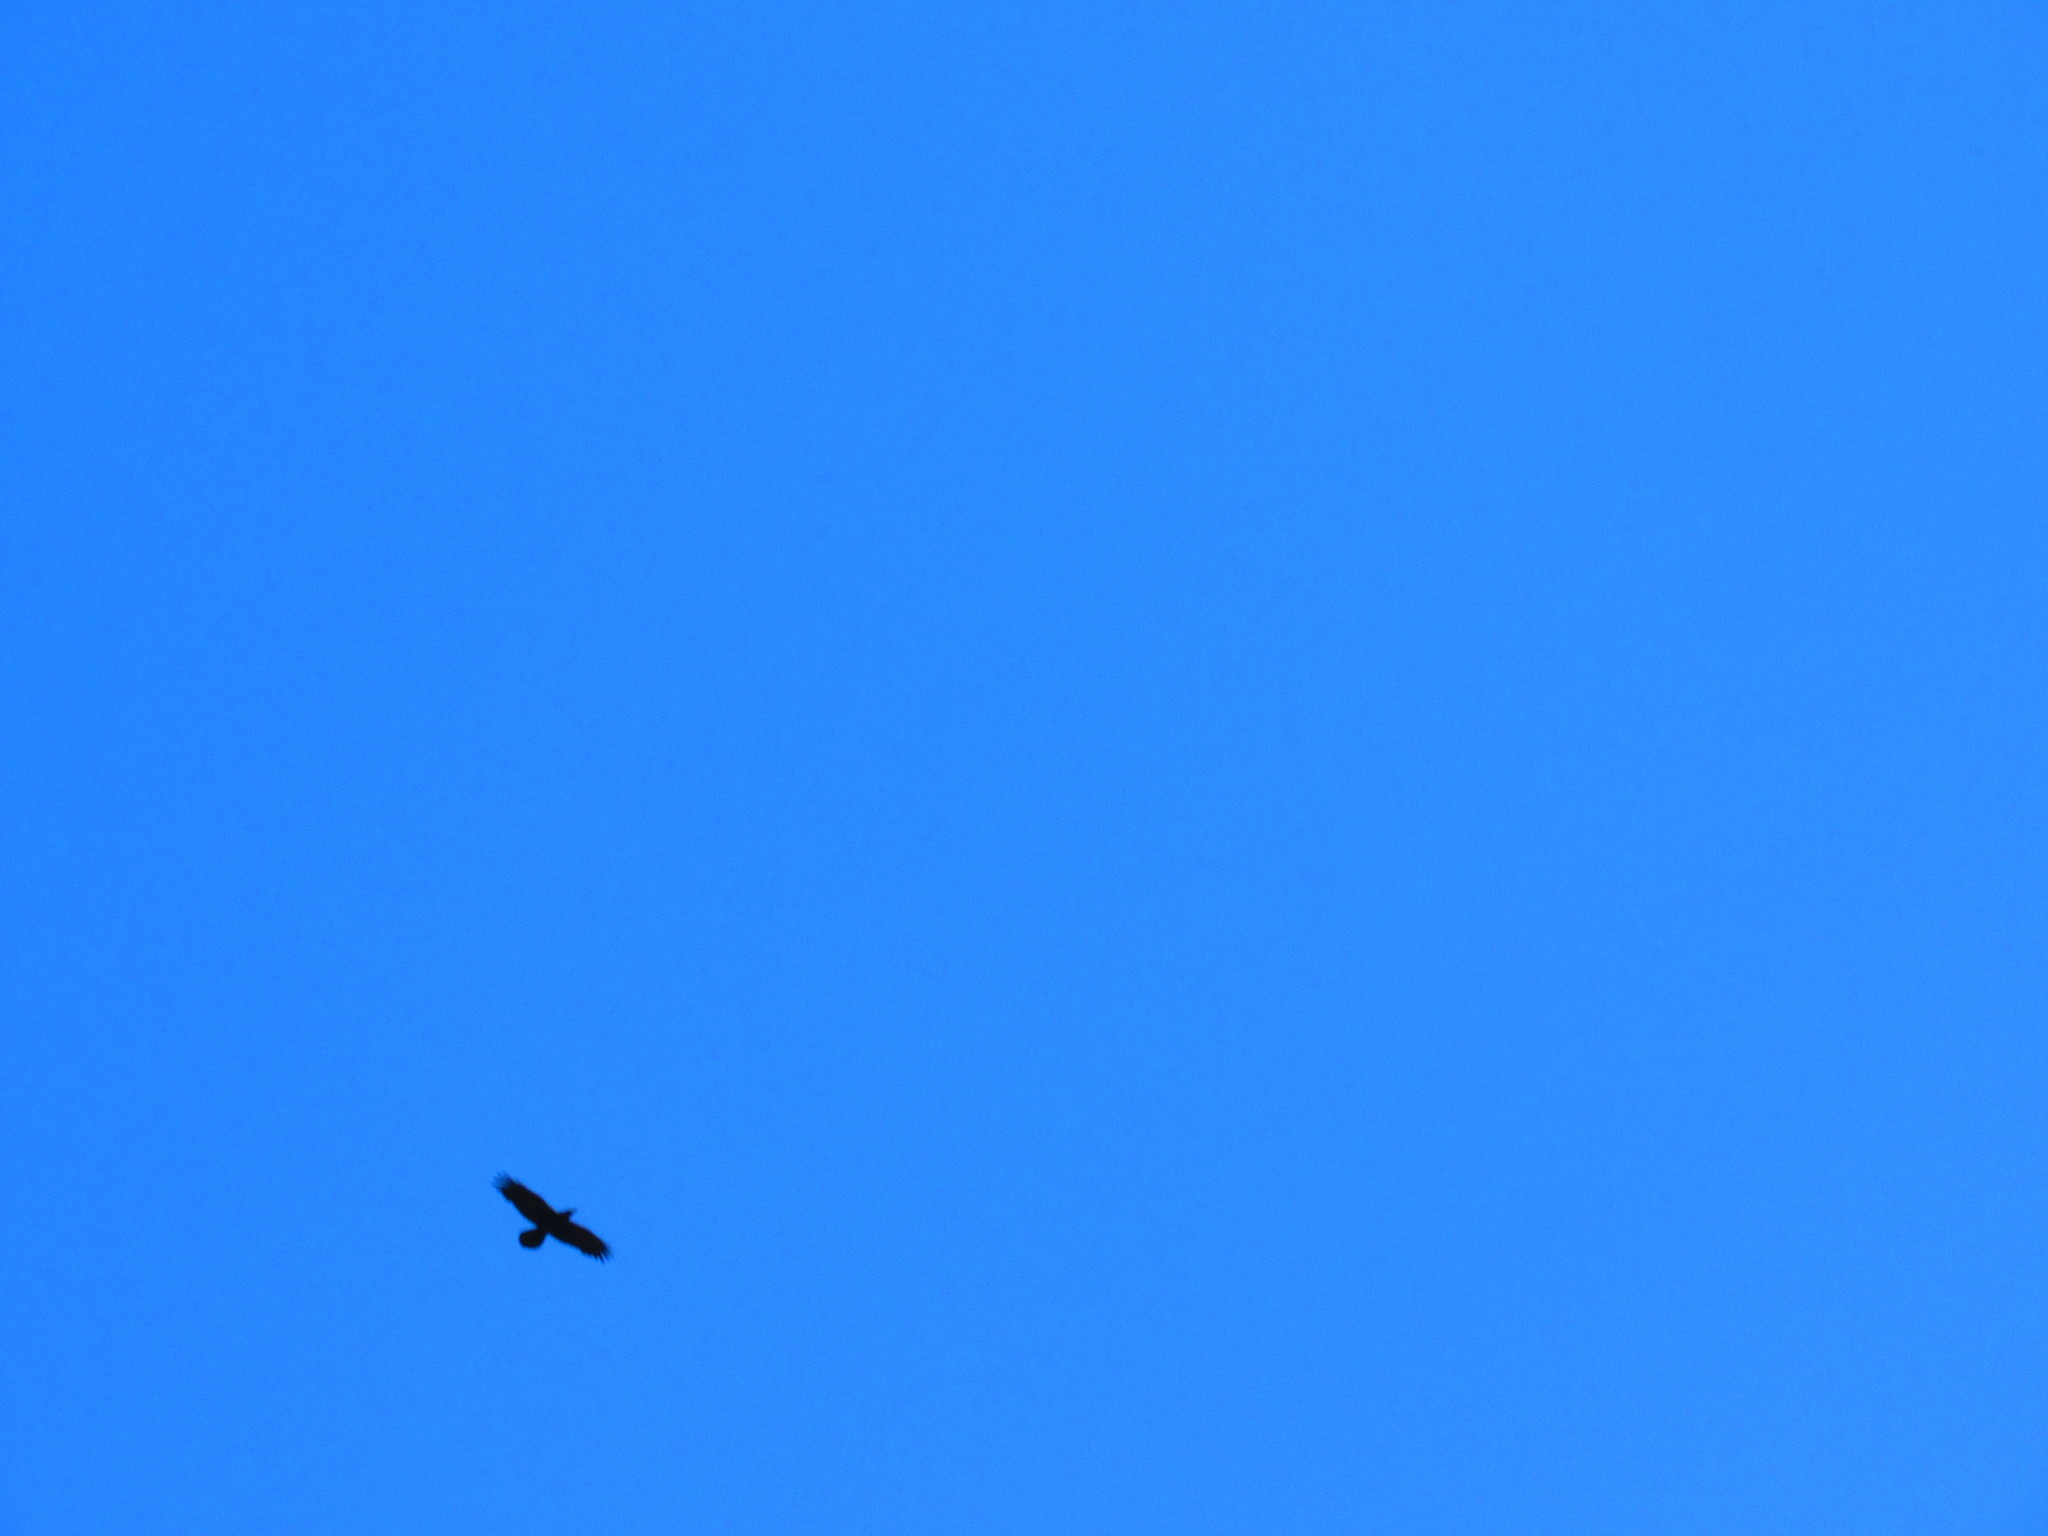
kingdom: Animalia
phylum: Chordata
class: Aves
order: Passeriformes
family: Corvidae
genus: Corvus
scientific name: Corvus corax
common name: Common raven
